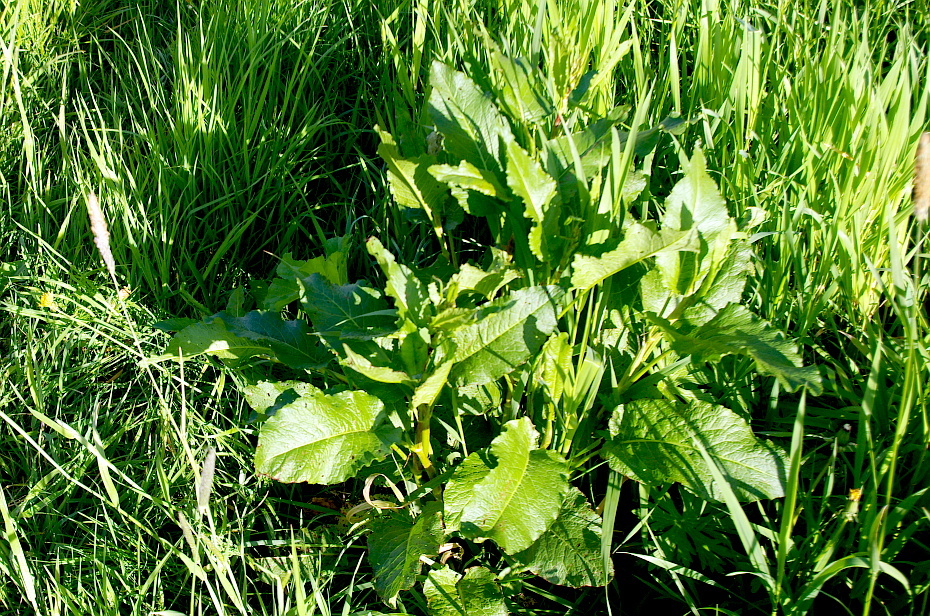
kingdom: Plantae
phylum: Tracheophyta
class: Magnoliopsida
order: Caryophyllales
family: Polygonaceae
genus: Rumex
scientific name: Rumex obtusifolius
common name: Bitter dock
